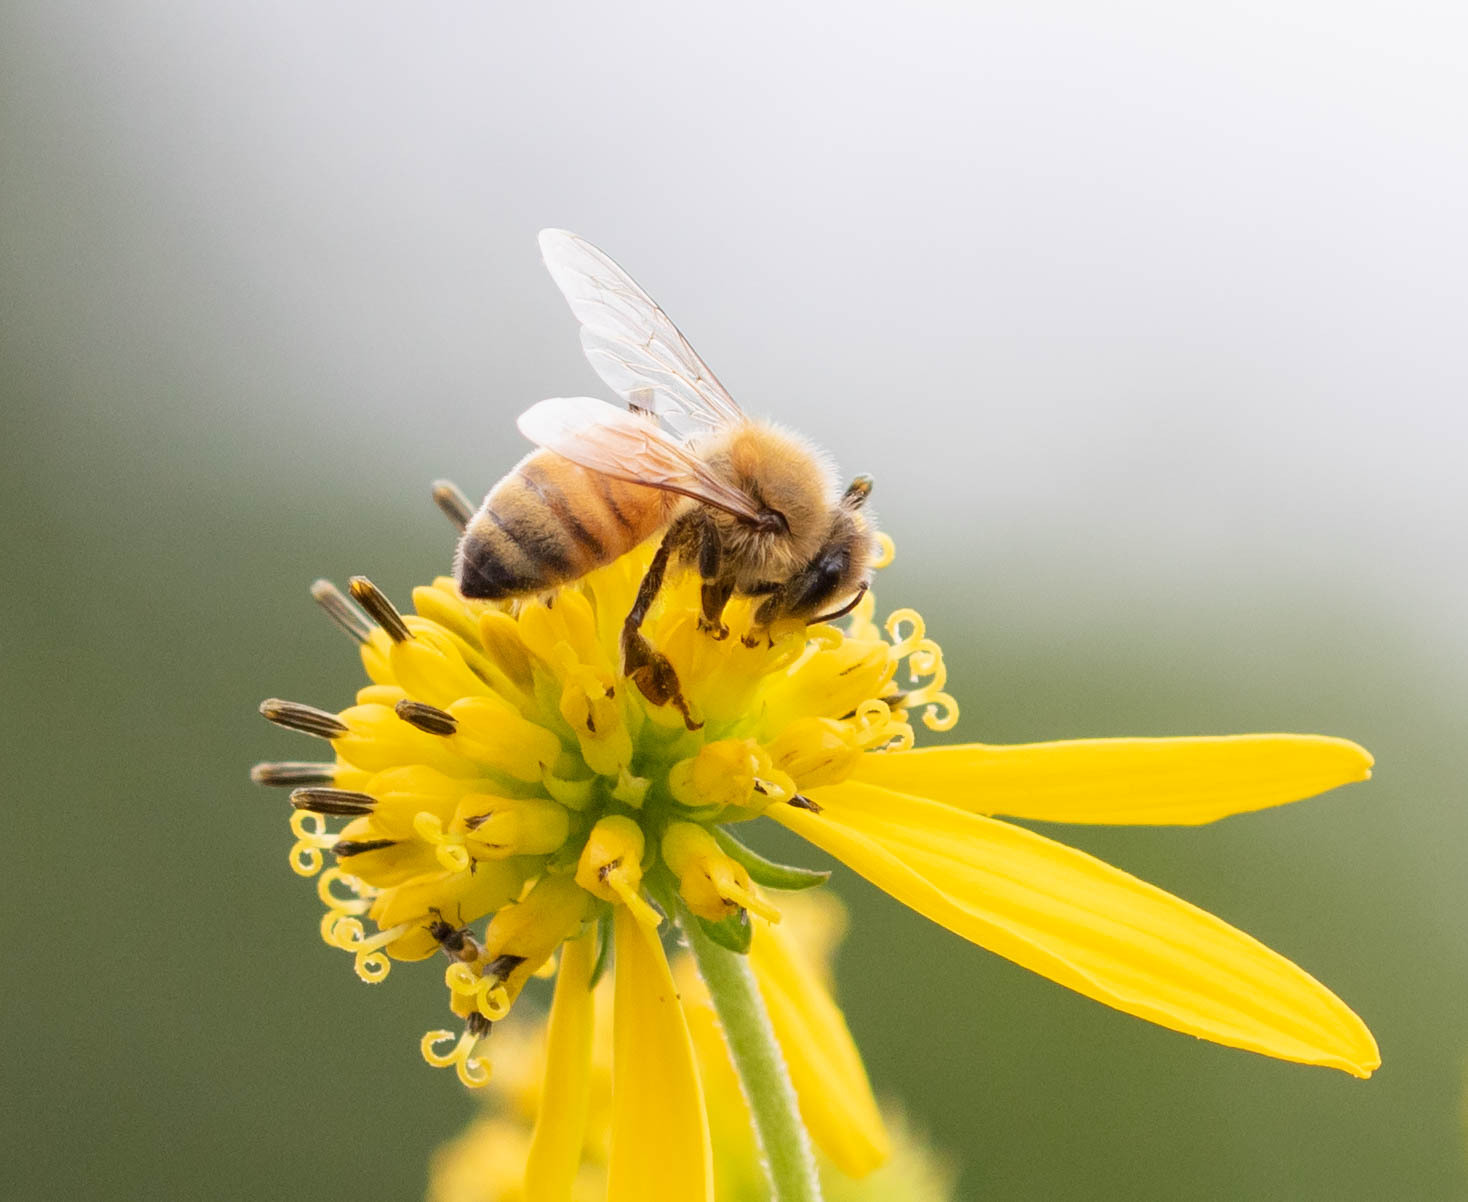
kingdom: Animalia
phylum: Arthropoda
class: Insecta
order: Hymenoptera
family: Apidae
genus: Apis
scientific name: Apis mellifera
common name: Honey bee
